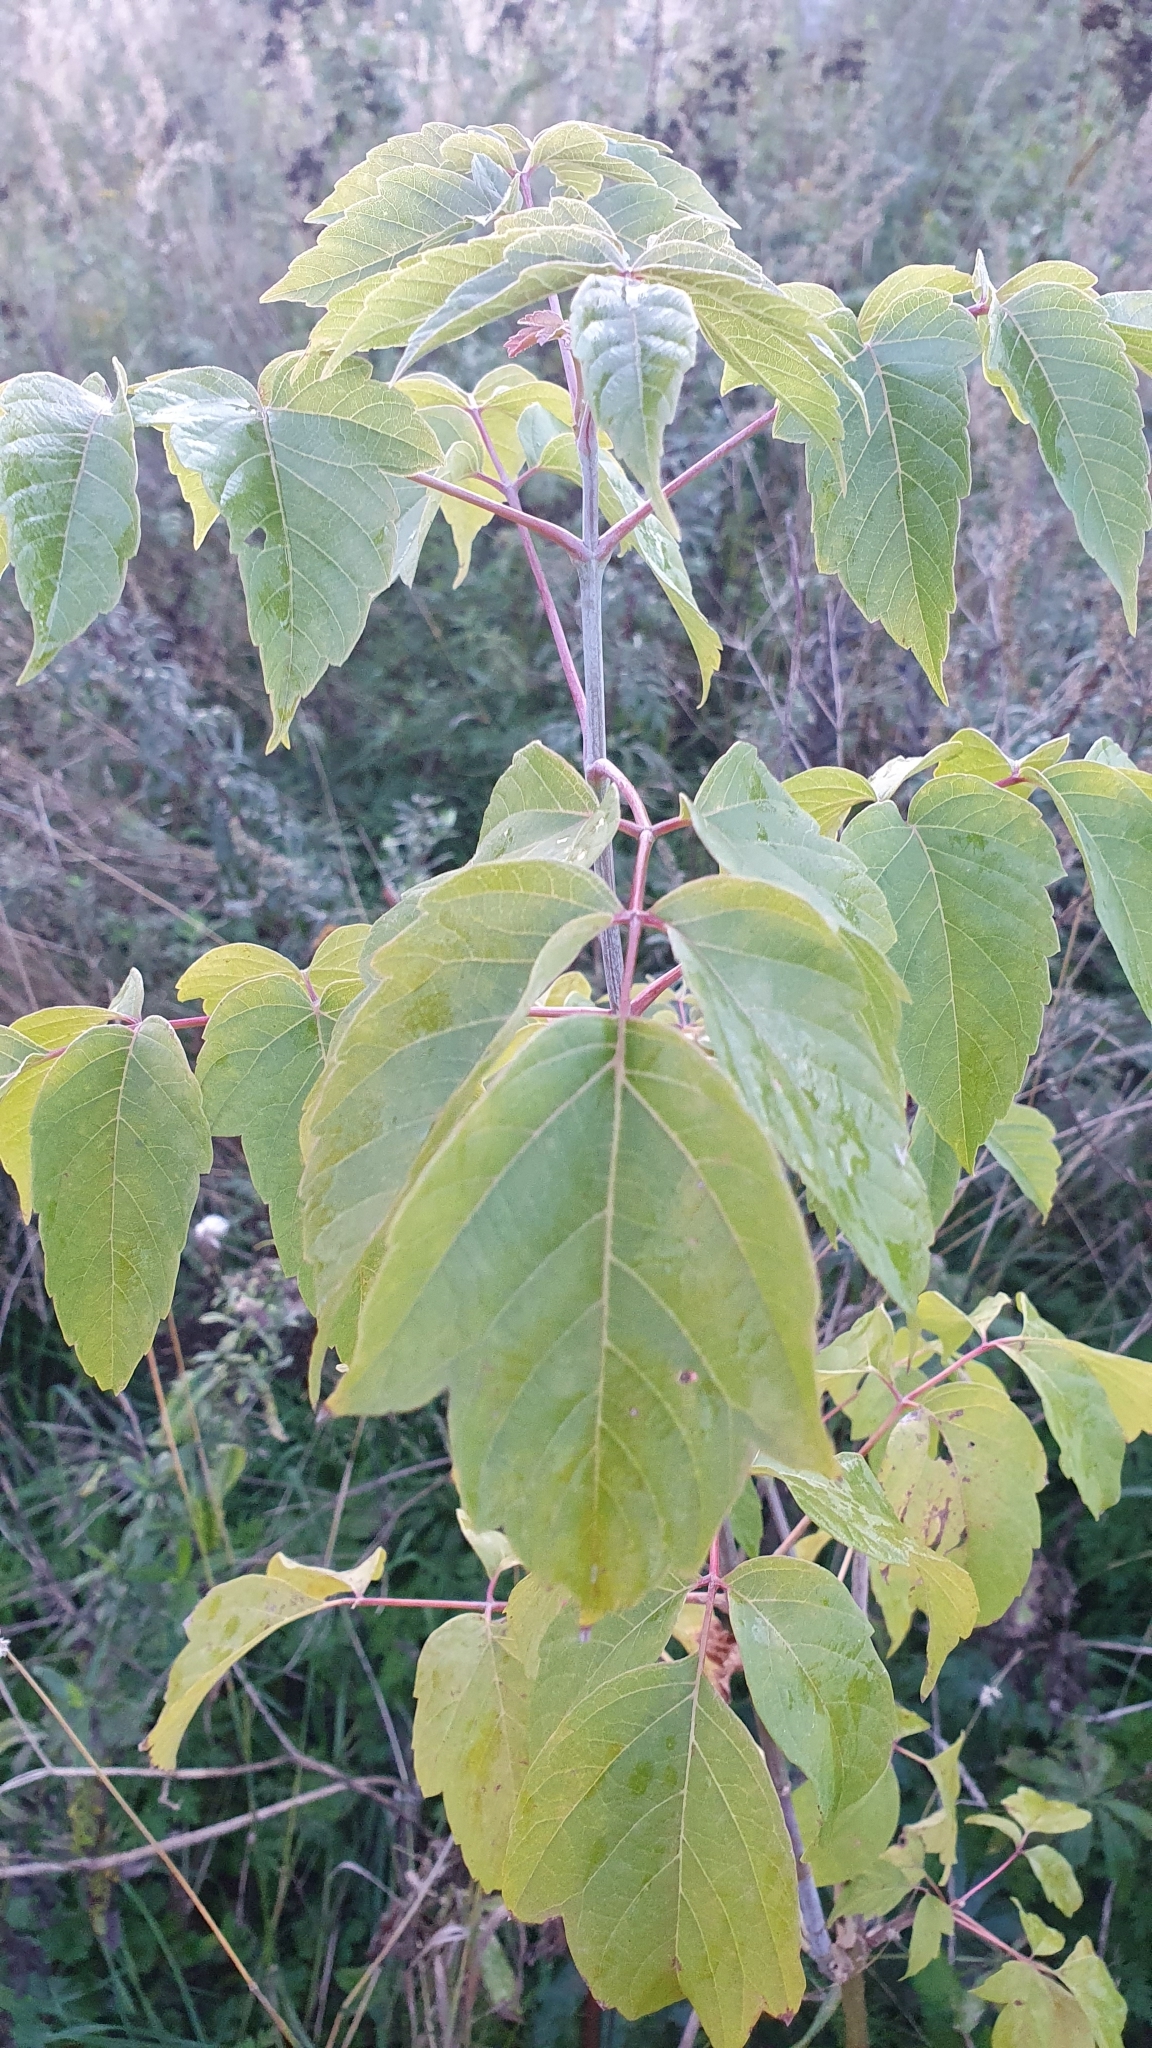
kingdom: Plantae
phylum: Tracheophyta
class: Magnoliopsida
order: Sapindales
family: Sapindaceae
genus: Acer
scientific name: Acer negundo
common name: Ashleaf maple
